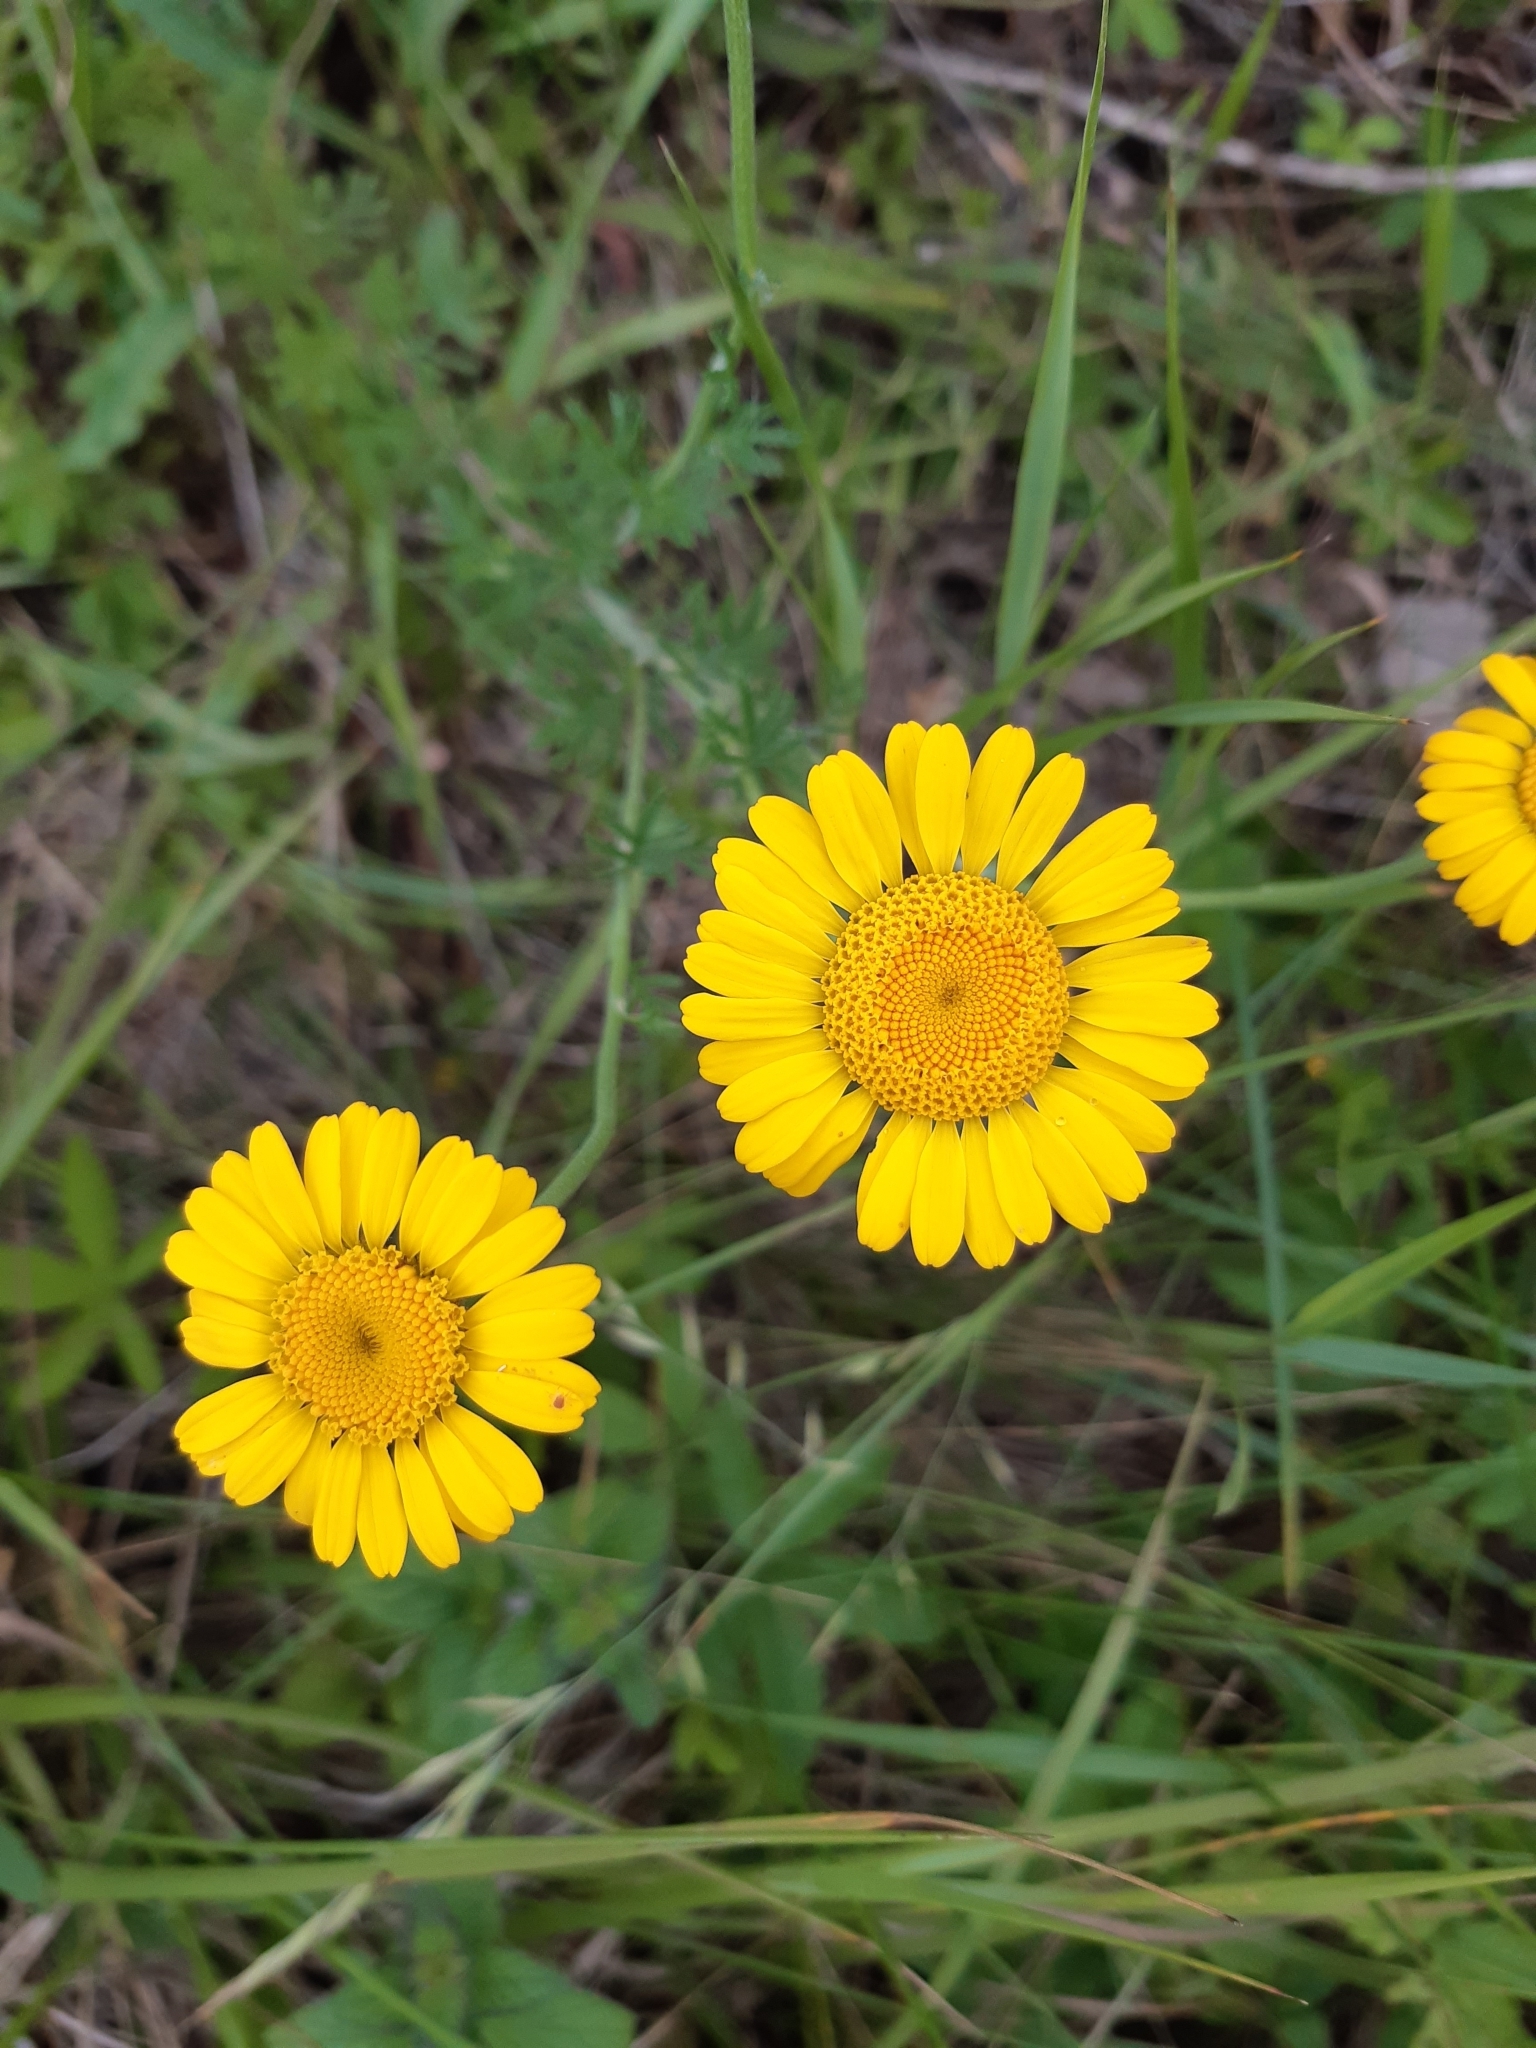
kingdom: Plantae
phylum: Tracheophyta
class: Magnoliopsida
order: Asterales
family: Asteraceae
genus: Cota
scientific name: Cota tinctoria
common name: Golden chamomile
